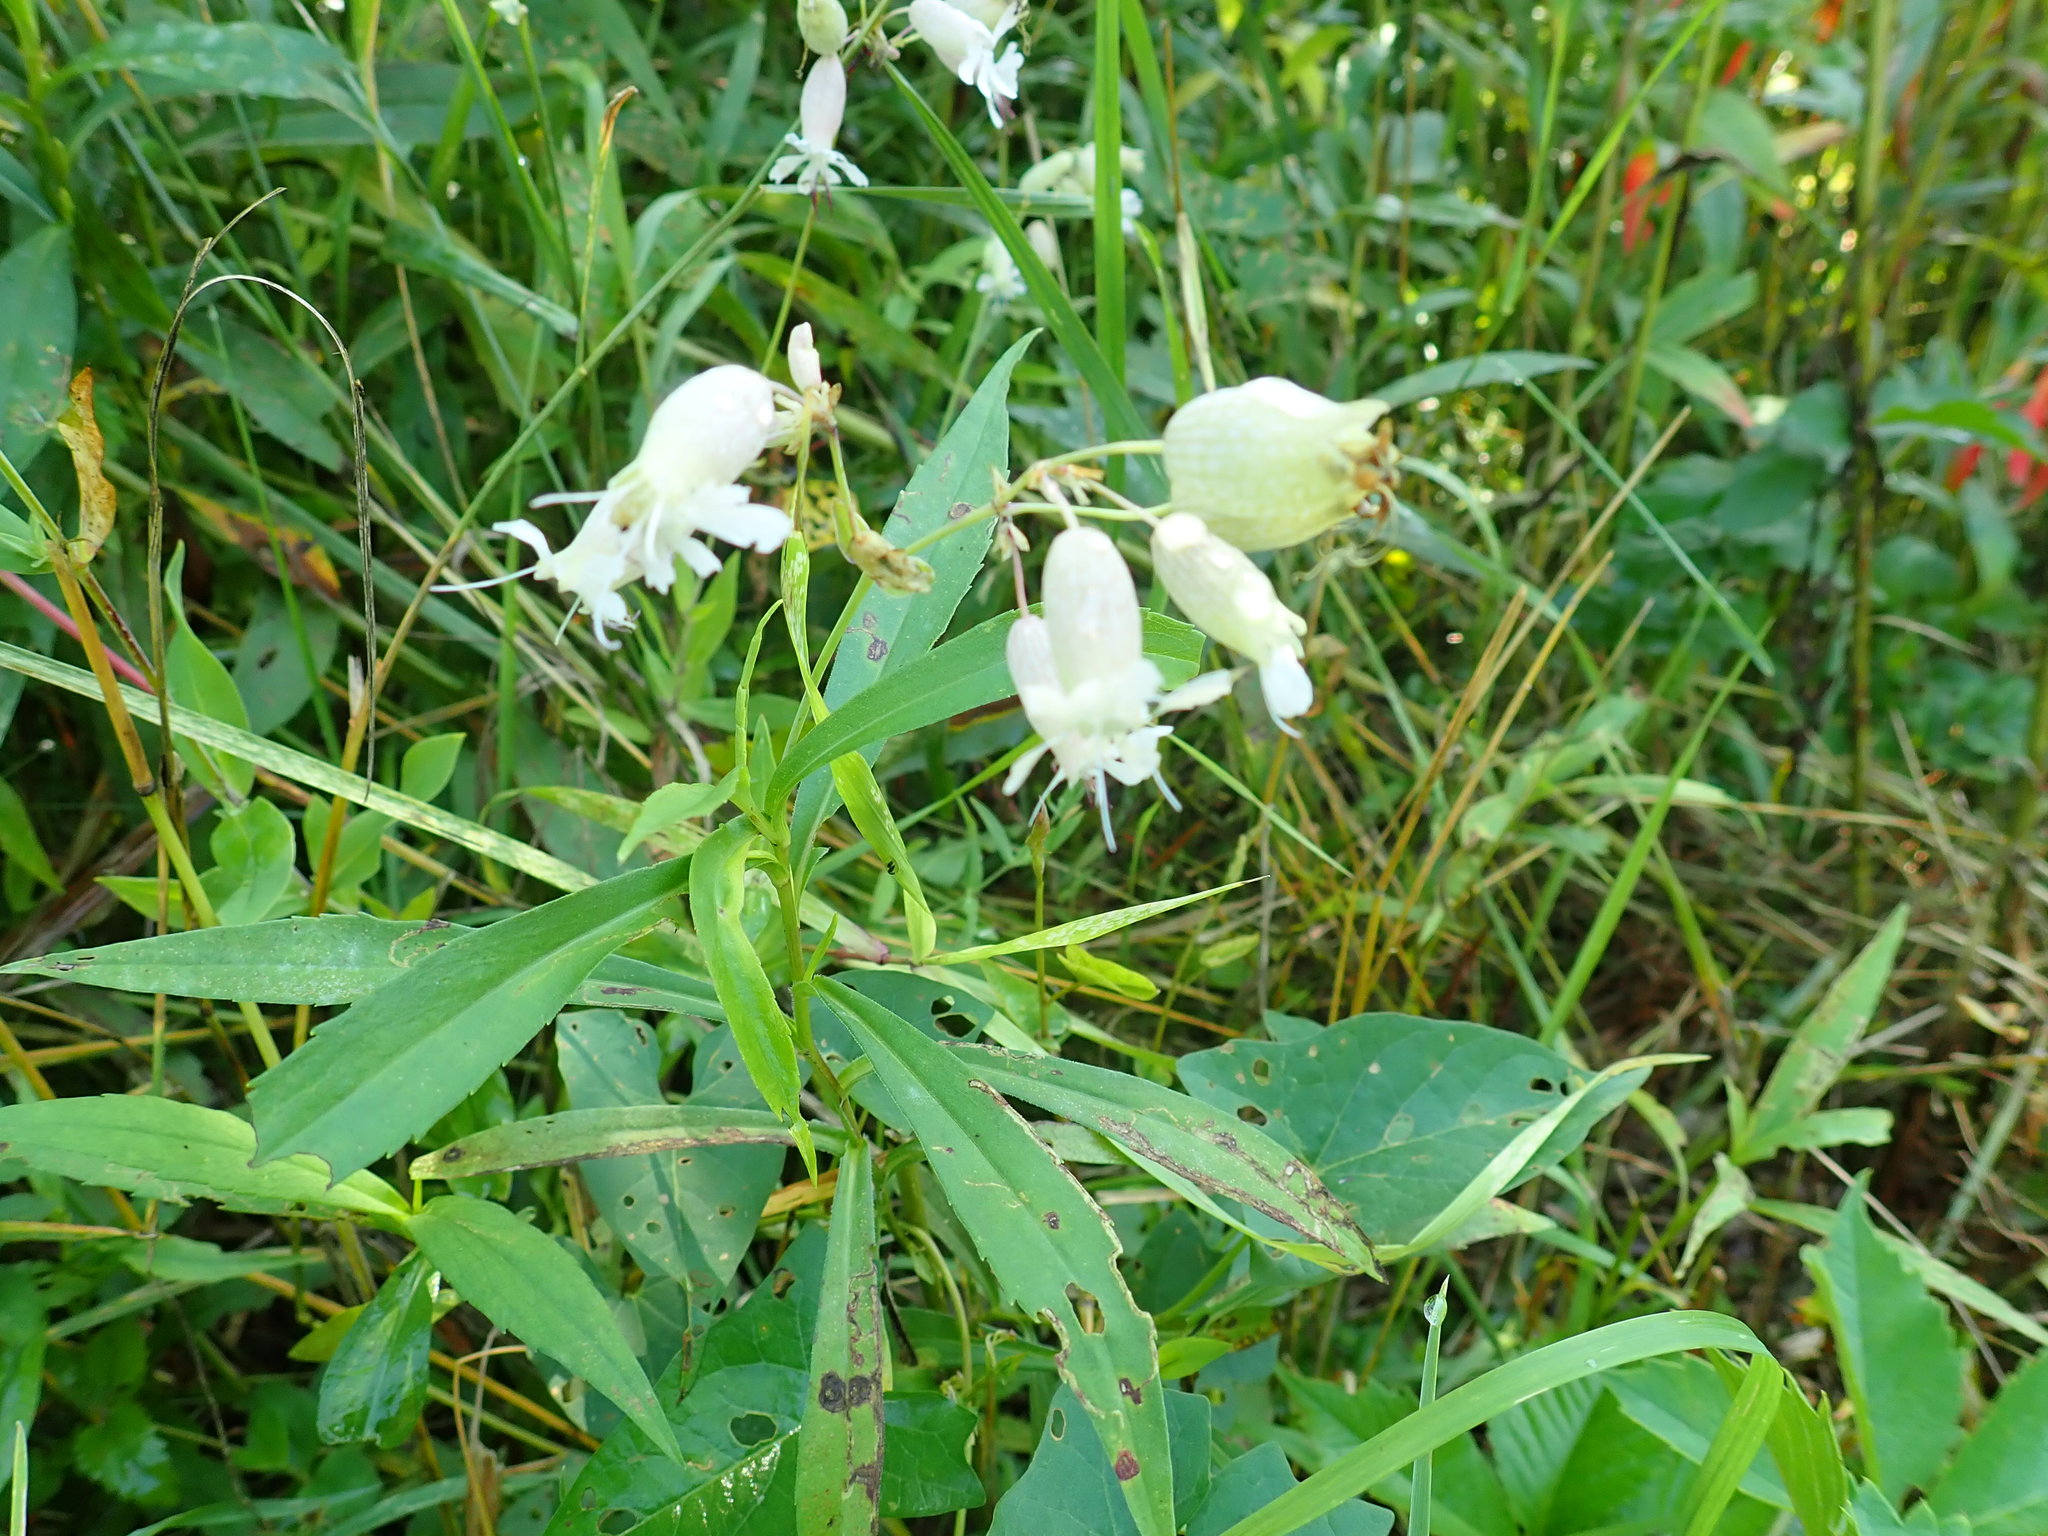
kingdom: Plantae
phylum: Tracheophyta
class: Magnoliopsida
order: Caryophyllales
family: Caryophyllaceae
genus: Silene
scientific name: Silene vulgaris
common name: Bladder campion
